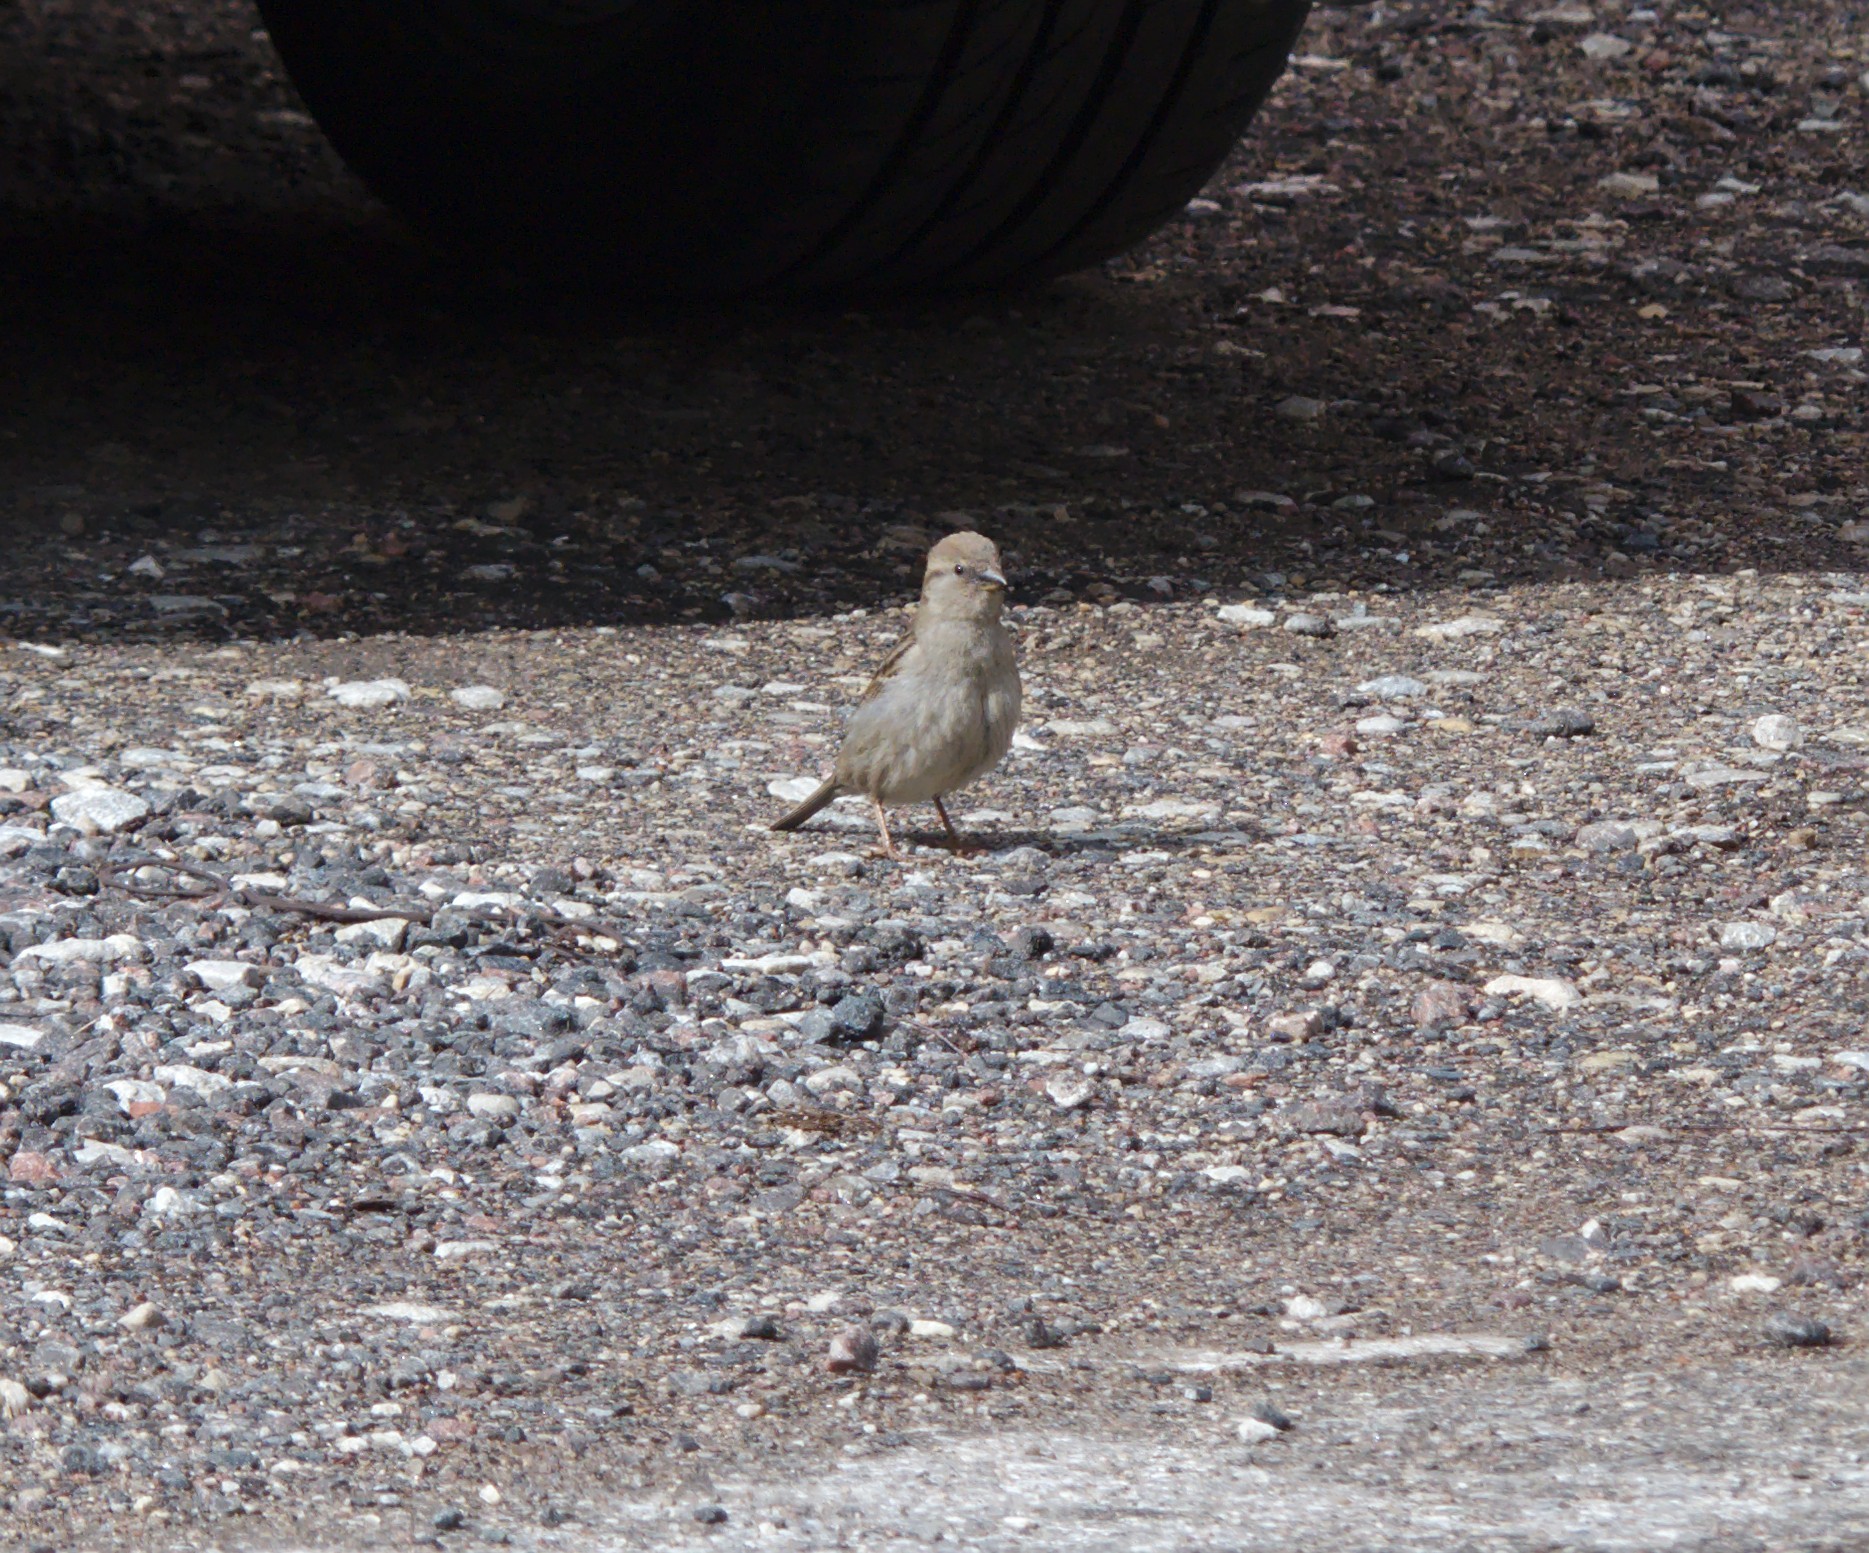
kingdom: Animalia
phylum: Chordata
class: Aves
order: Passeriformes
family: Passeridae
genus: Passer
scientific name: Passer domesticus
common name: House sparrow
